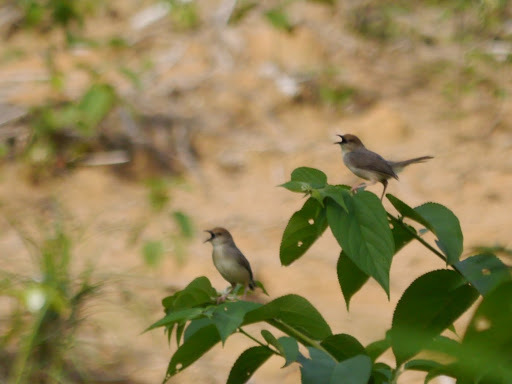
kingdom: Animalia
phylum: Chordata
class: Aves
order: Passeriformes
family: Cisticolidae
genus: Cisticola
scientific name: Cisticola anonymus
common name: Chattering cisticola
